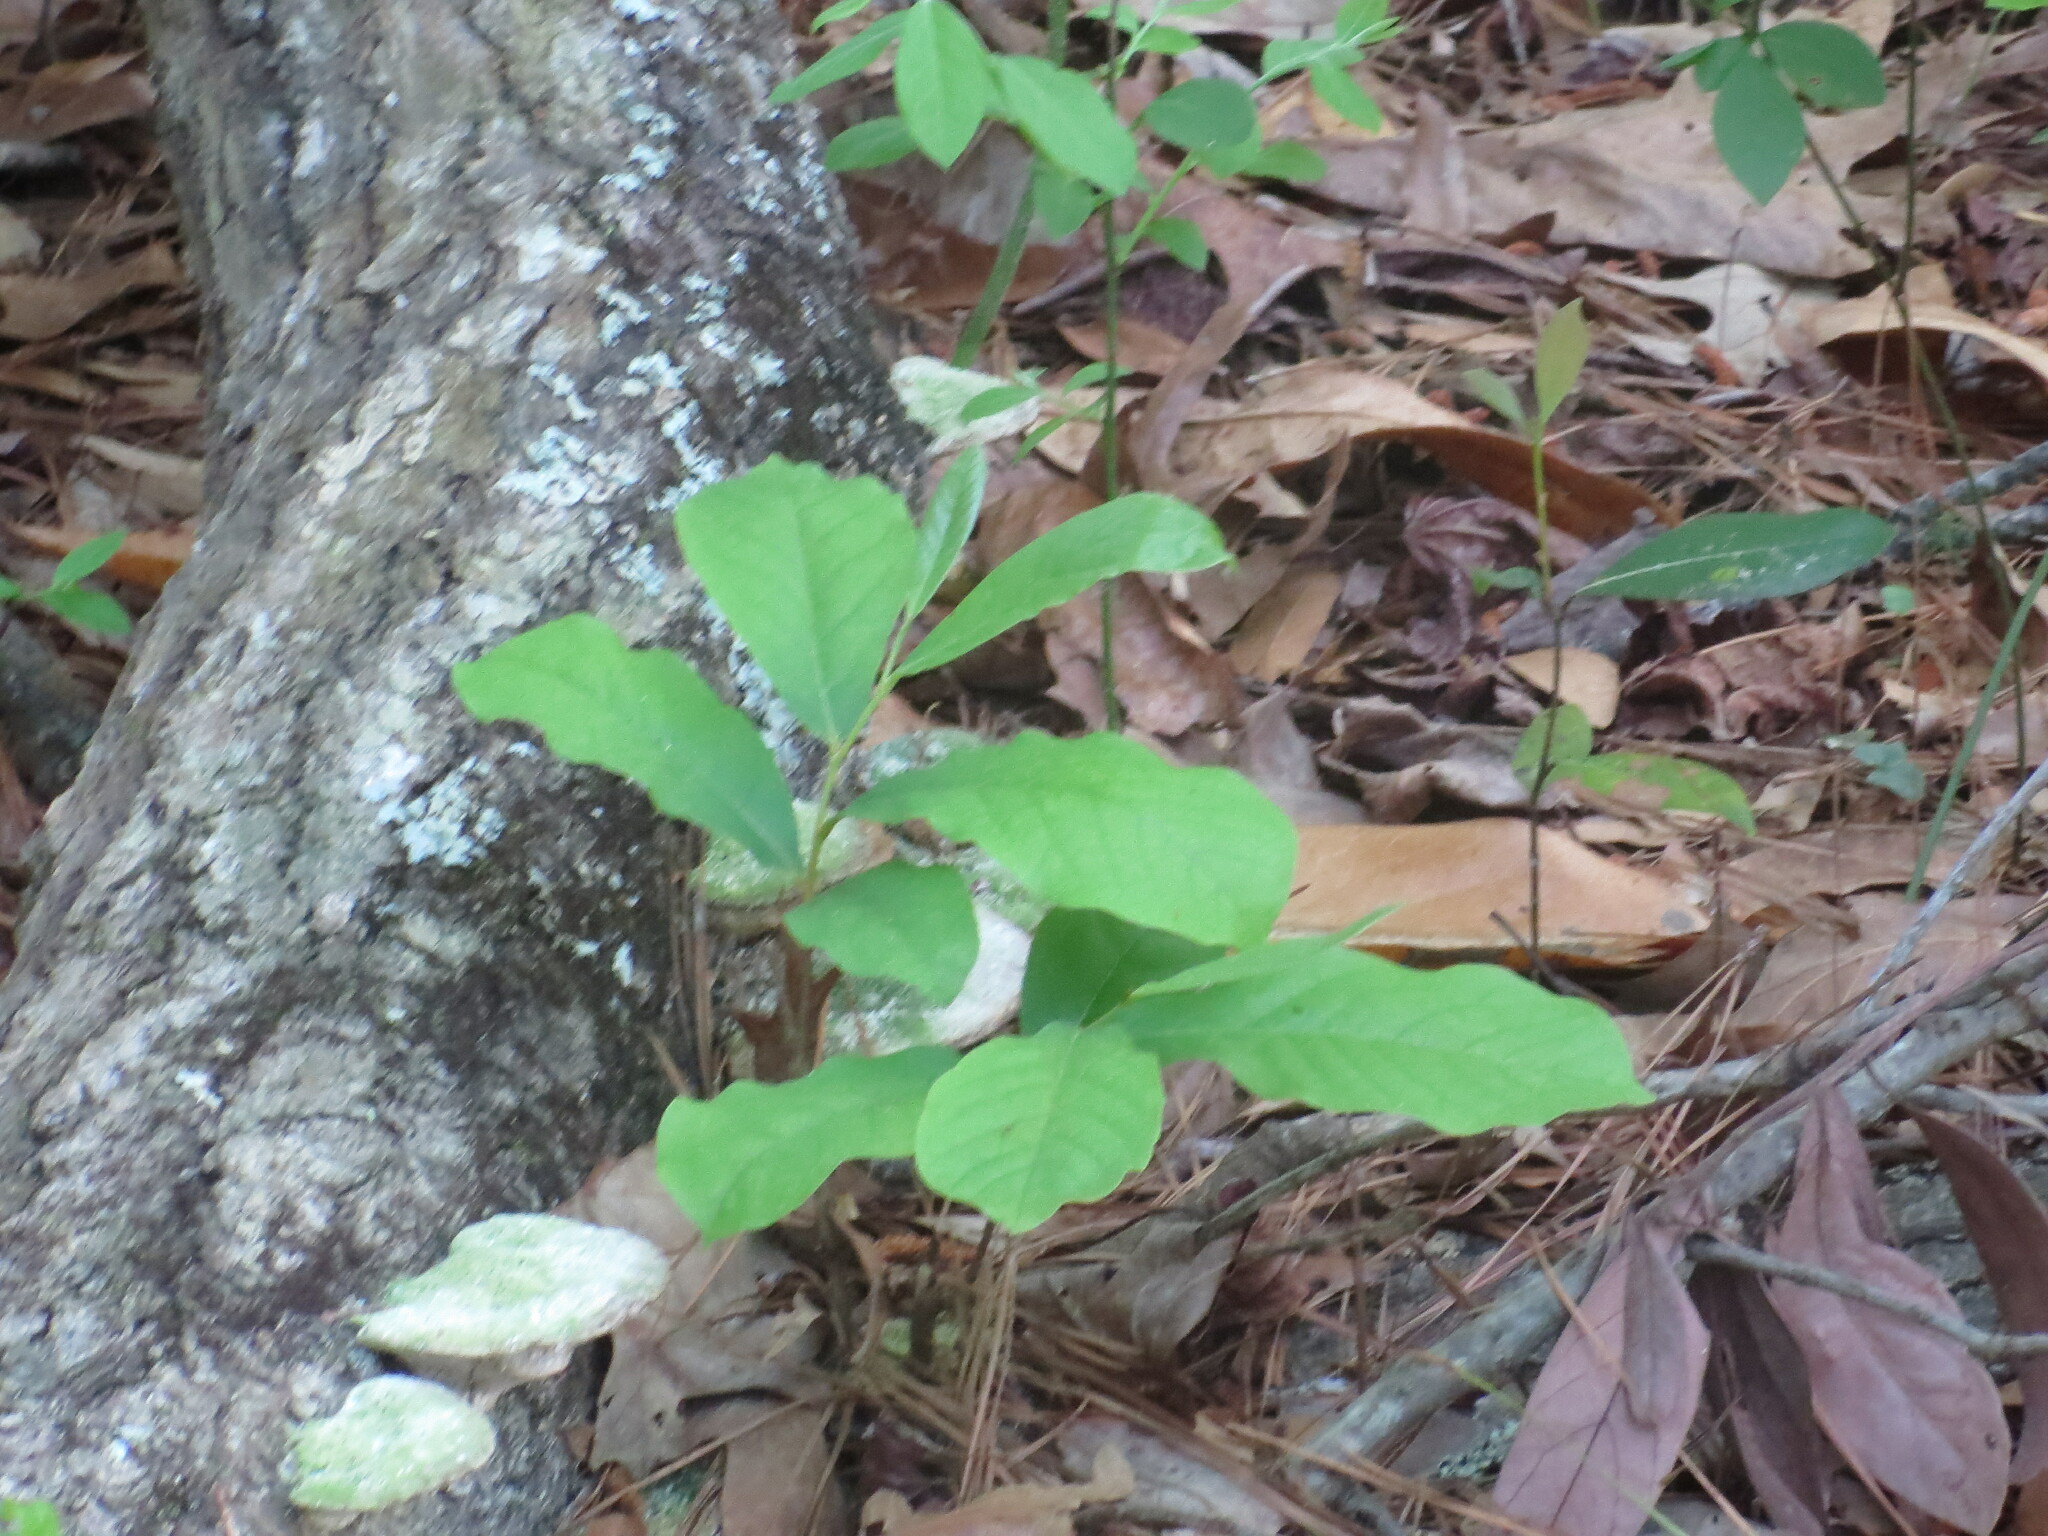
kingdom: Plantae
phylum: Tracheophyta
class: Magnoliopsida
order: Magnoliales
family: Annonaceae
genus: Asimina
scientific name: Asimina parviflora
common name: Dwarf pawpaw
